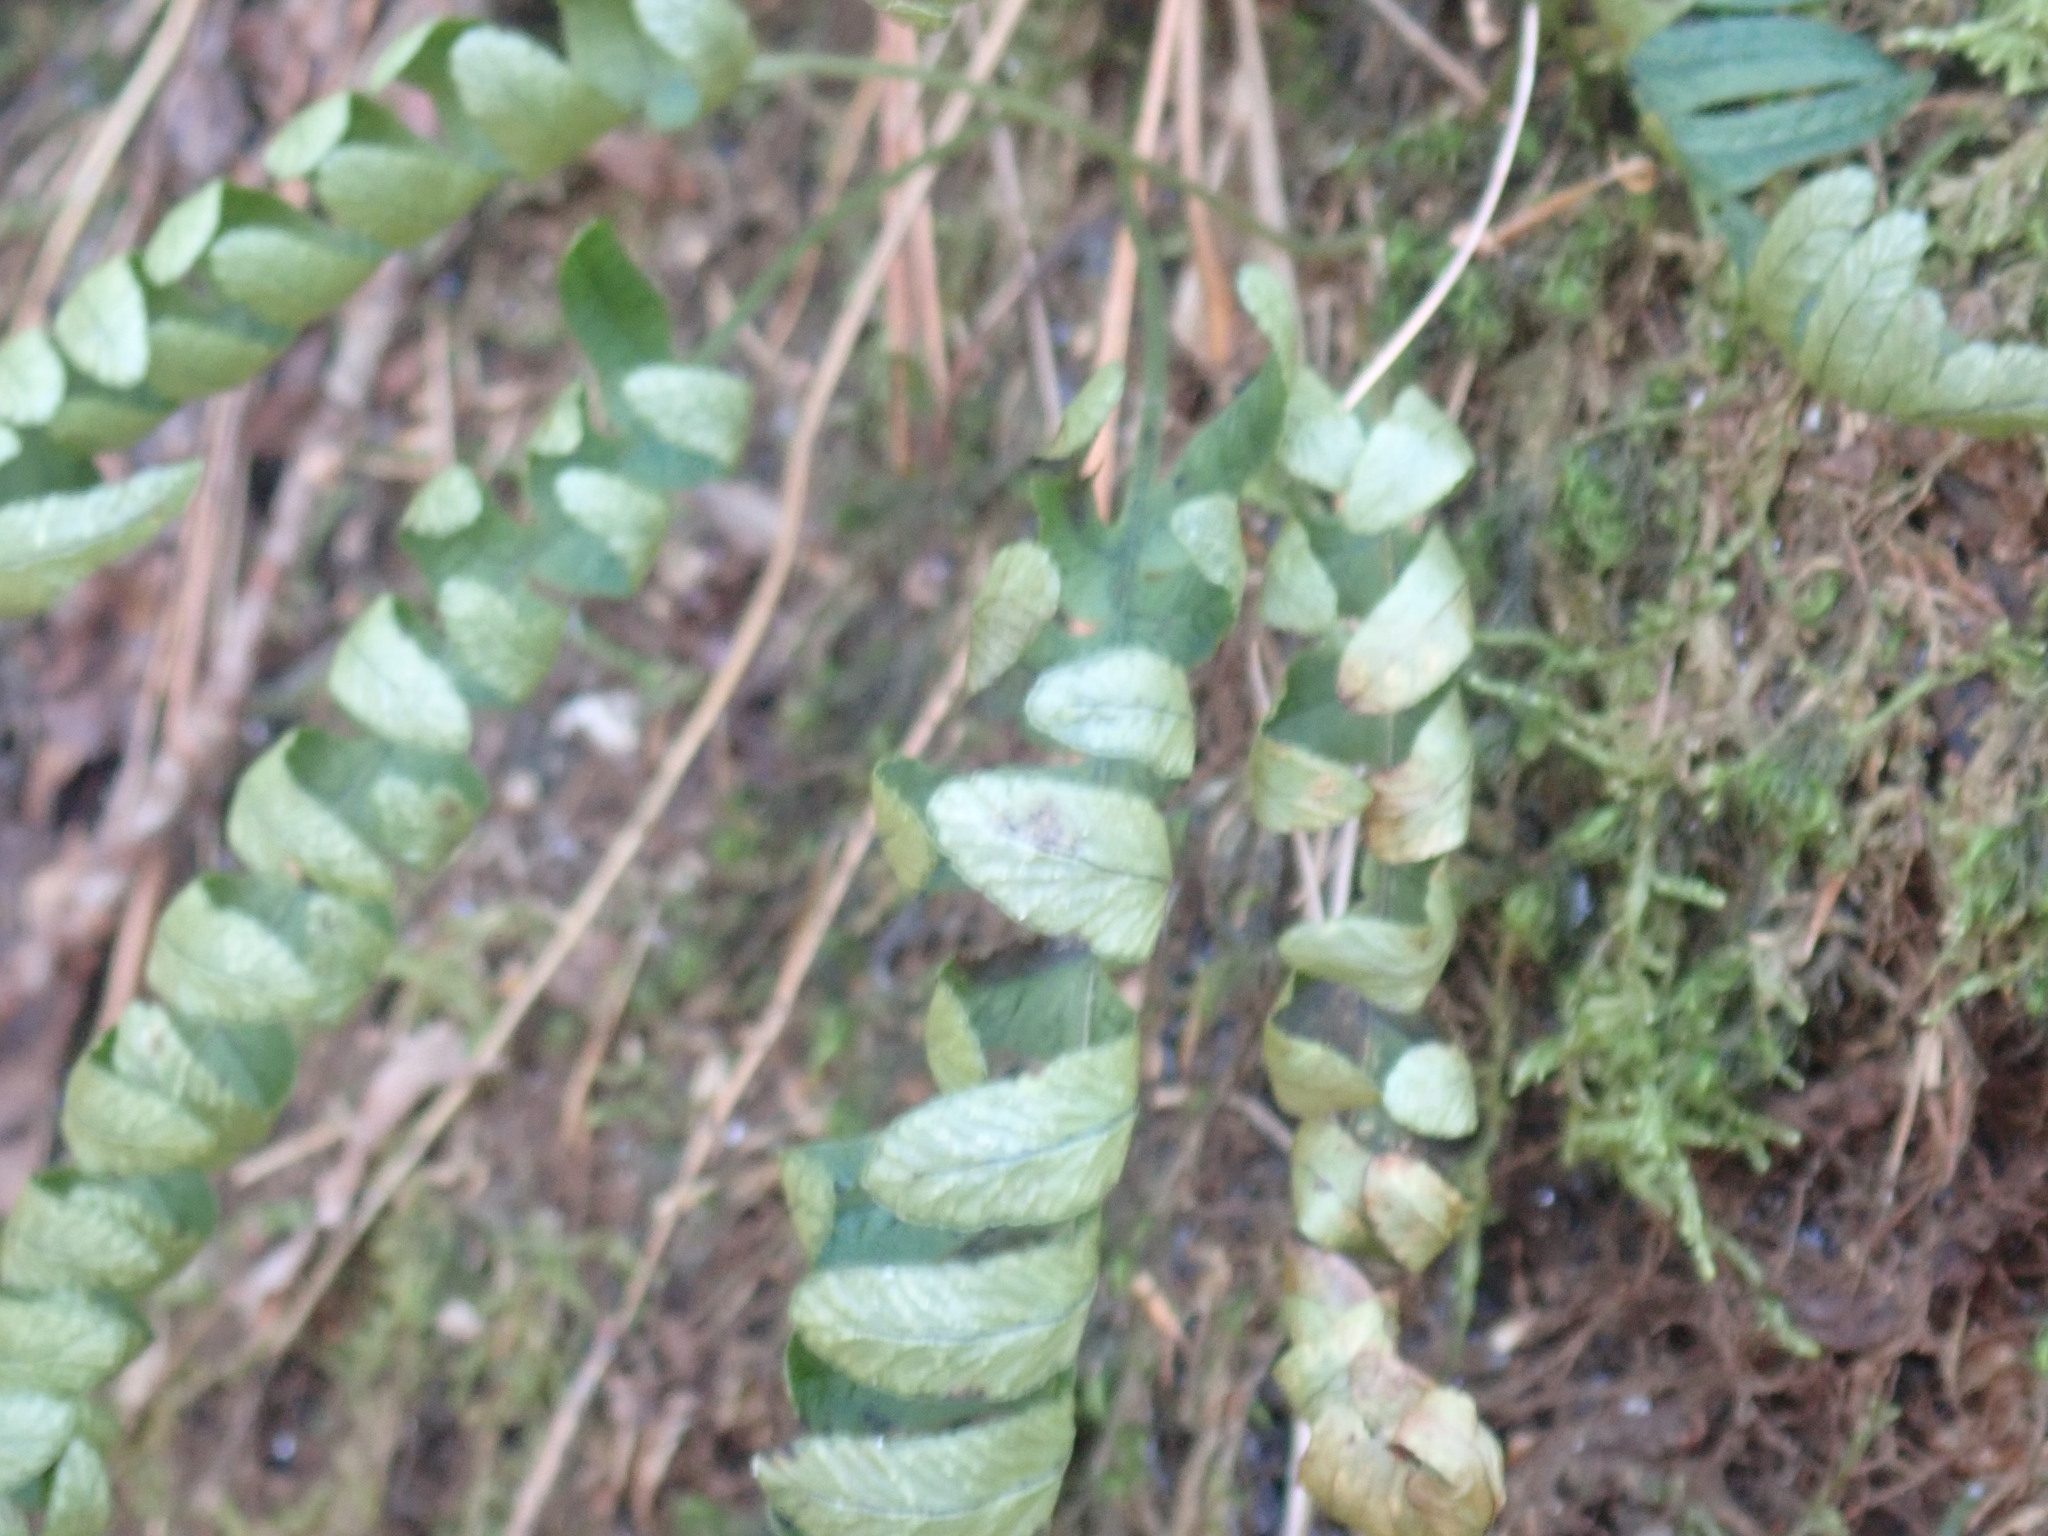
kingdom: Plantae
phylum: Tracheophyta
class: Polypodiopsida
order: Polypodiales
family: Polypodiaceae
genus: Polypodium
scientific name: Polypodium
